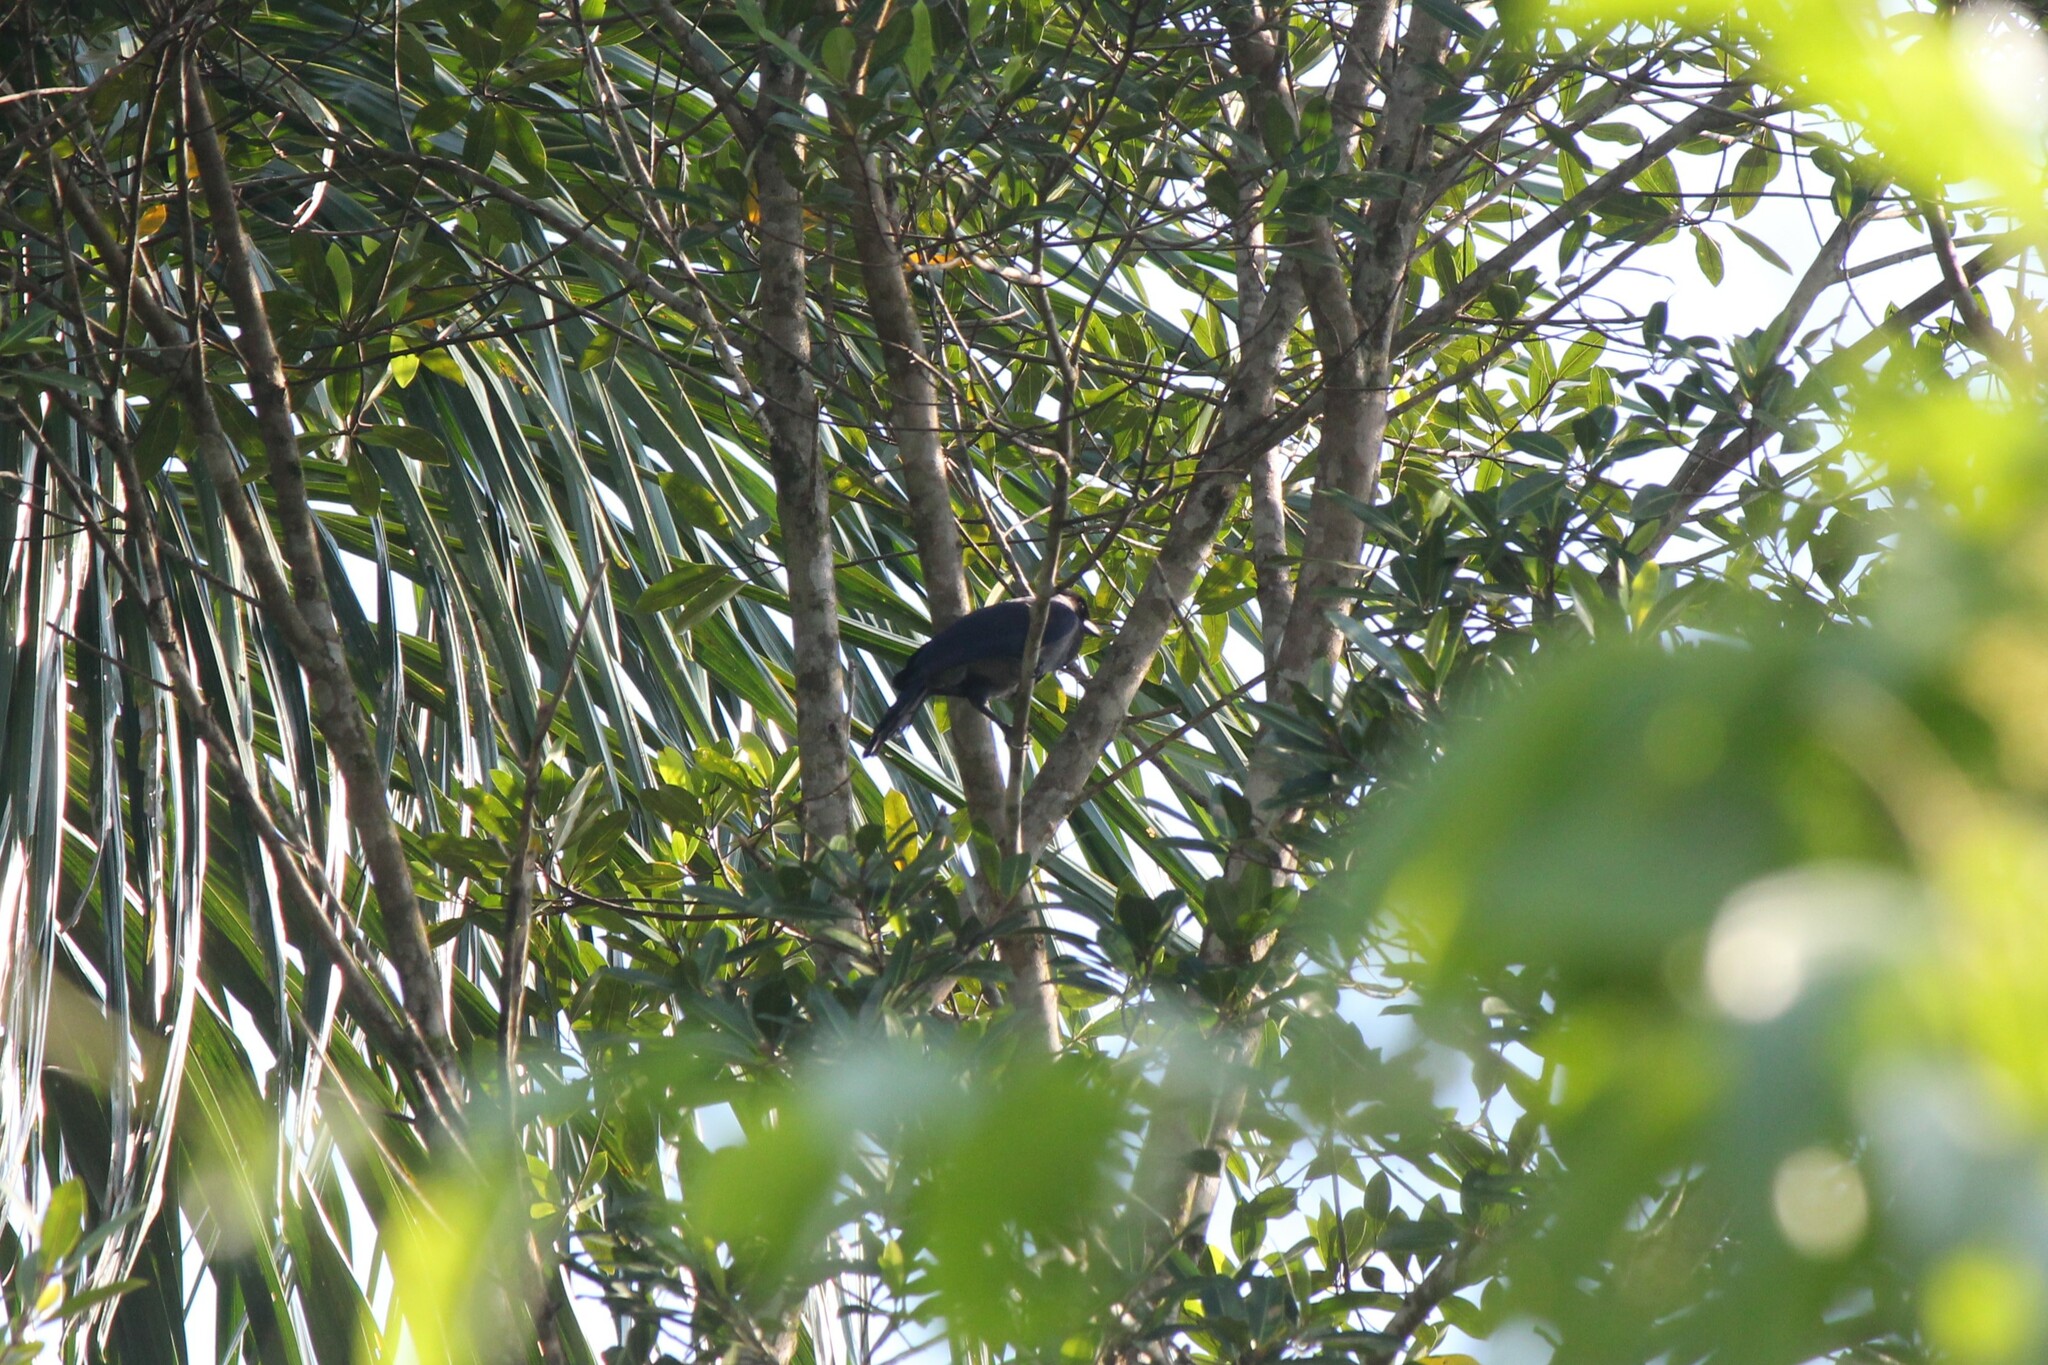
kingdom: Animalia
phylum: Chordata
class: Aves
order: Passeriformes
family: Corvidae
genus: Cyanocorax
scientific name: Cyanocorax violaceus
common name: Violaceous jay
